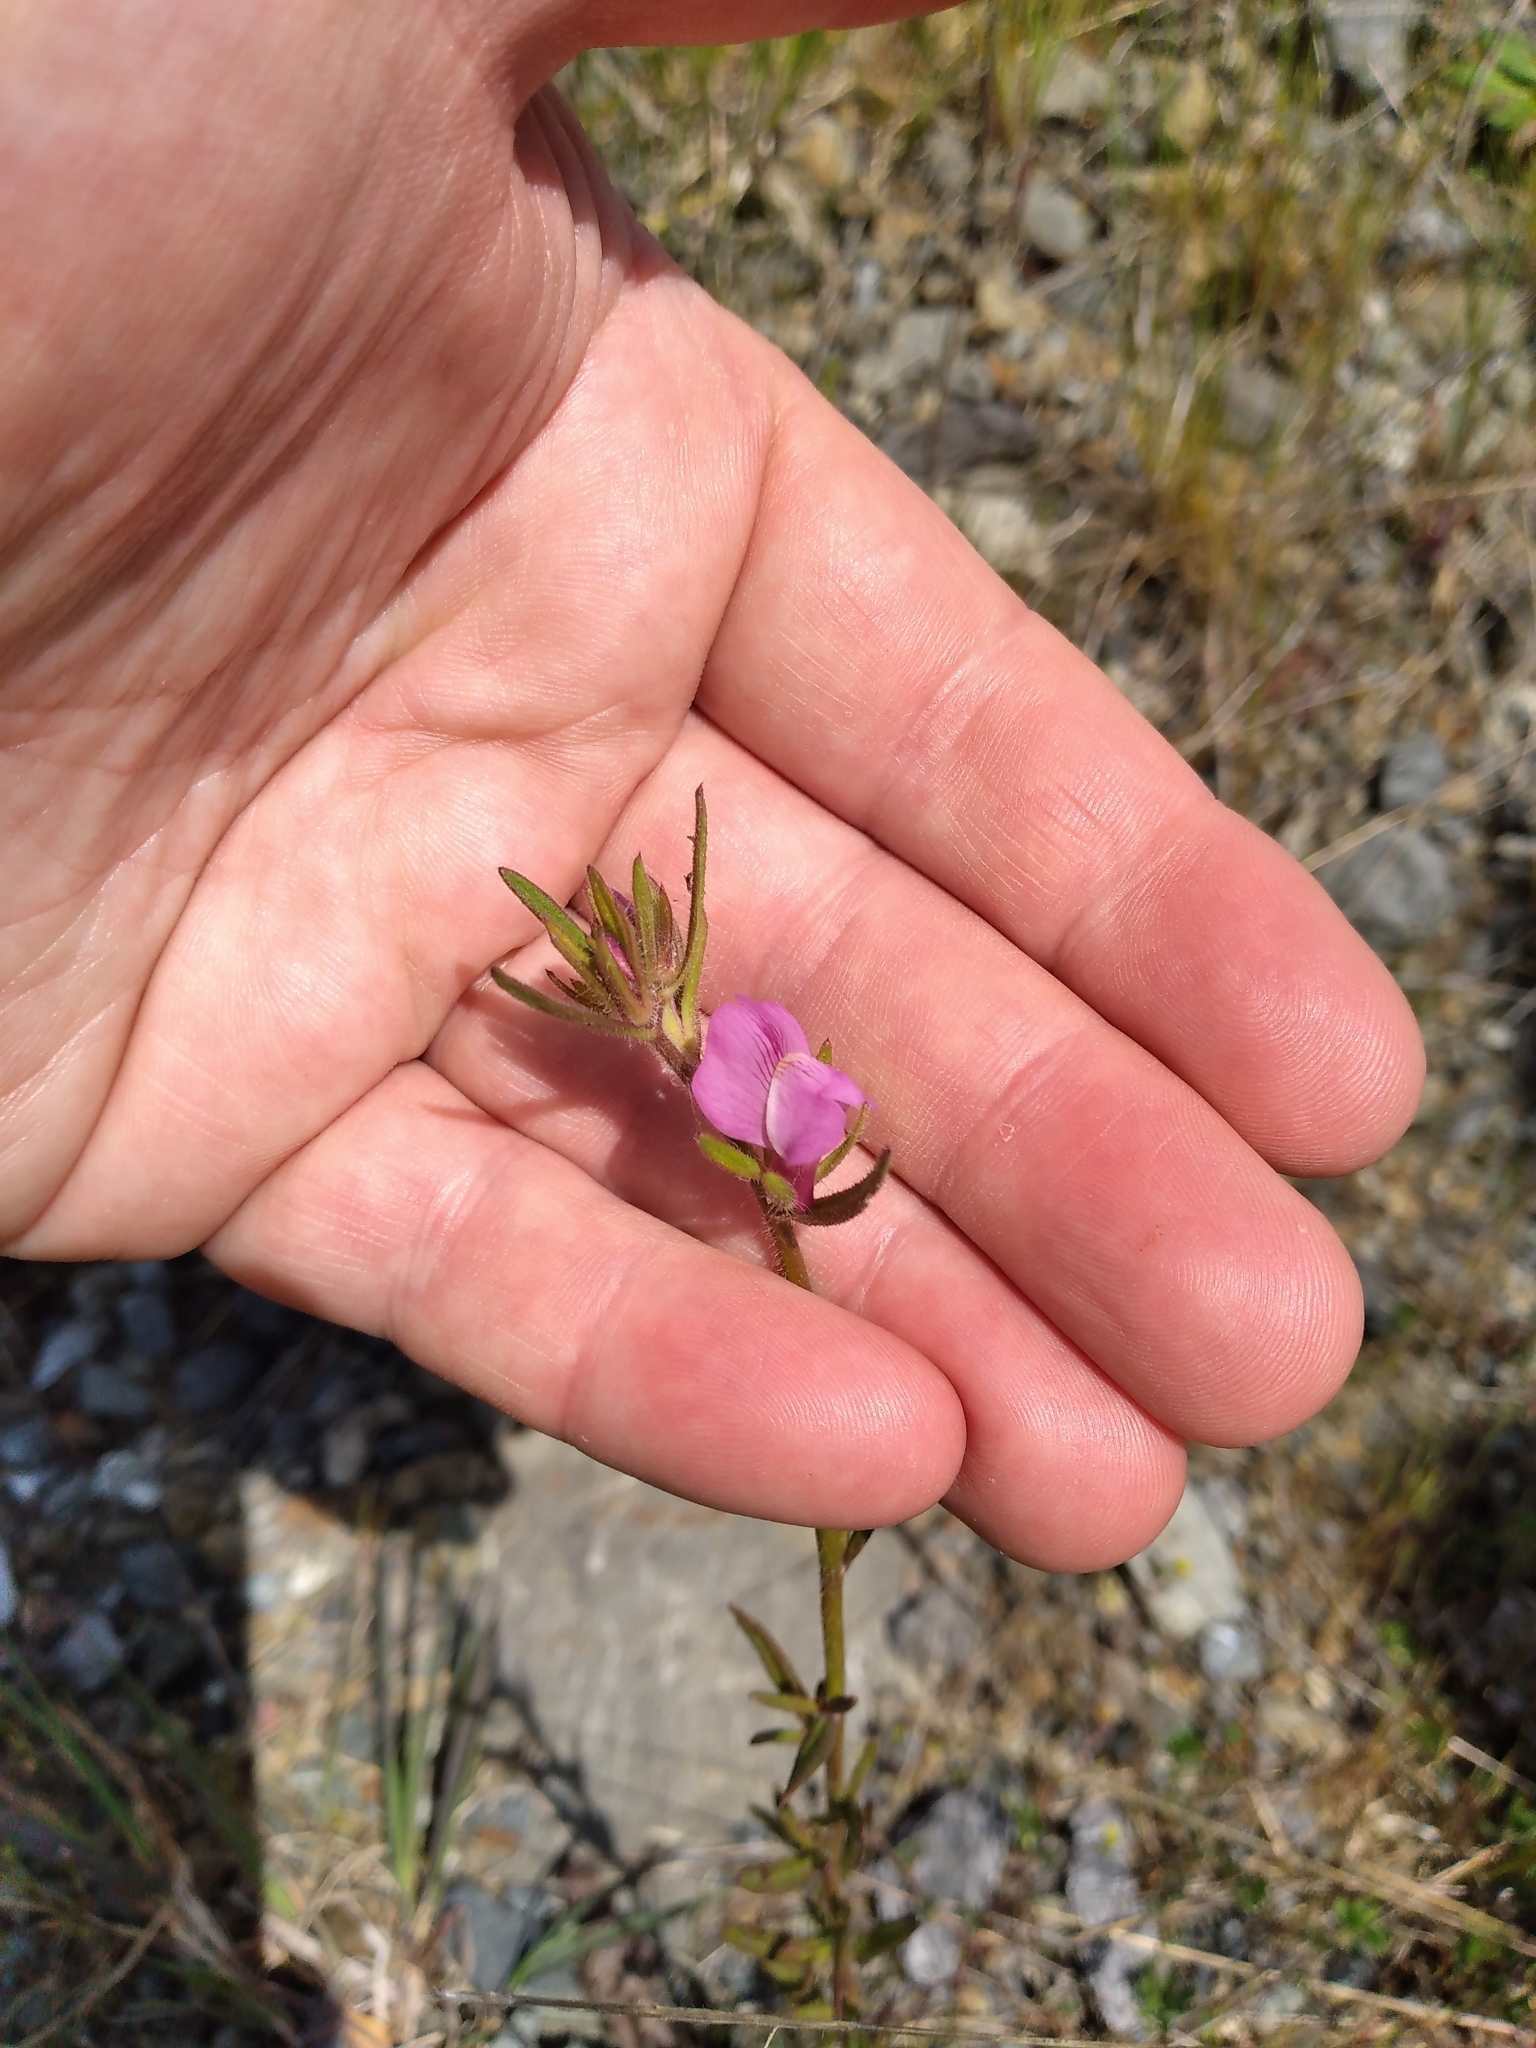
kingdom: Plantae
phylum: Tracheophyta
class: Magnoliopsida
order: Lamiales
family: Plantaginaceae
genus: Misopates
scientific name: Misopates orontium
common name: Weasel's-snout
